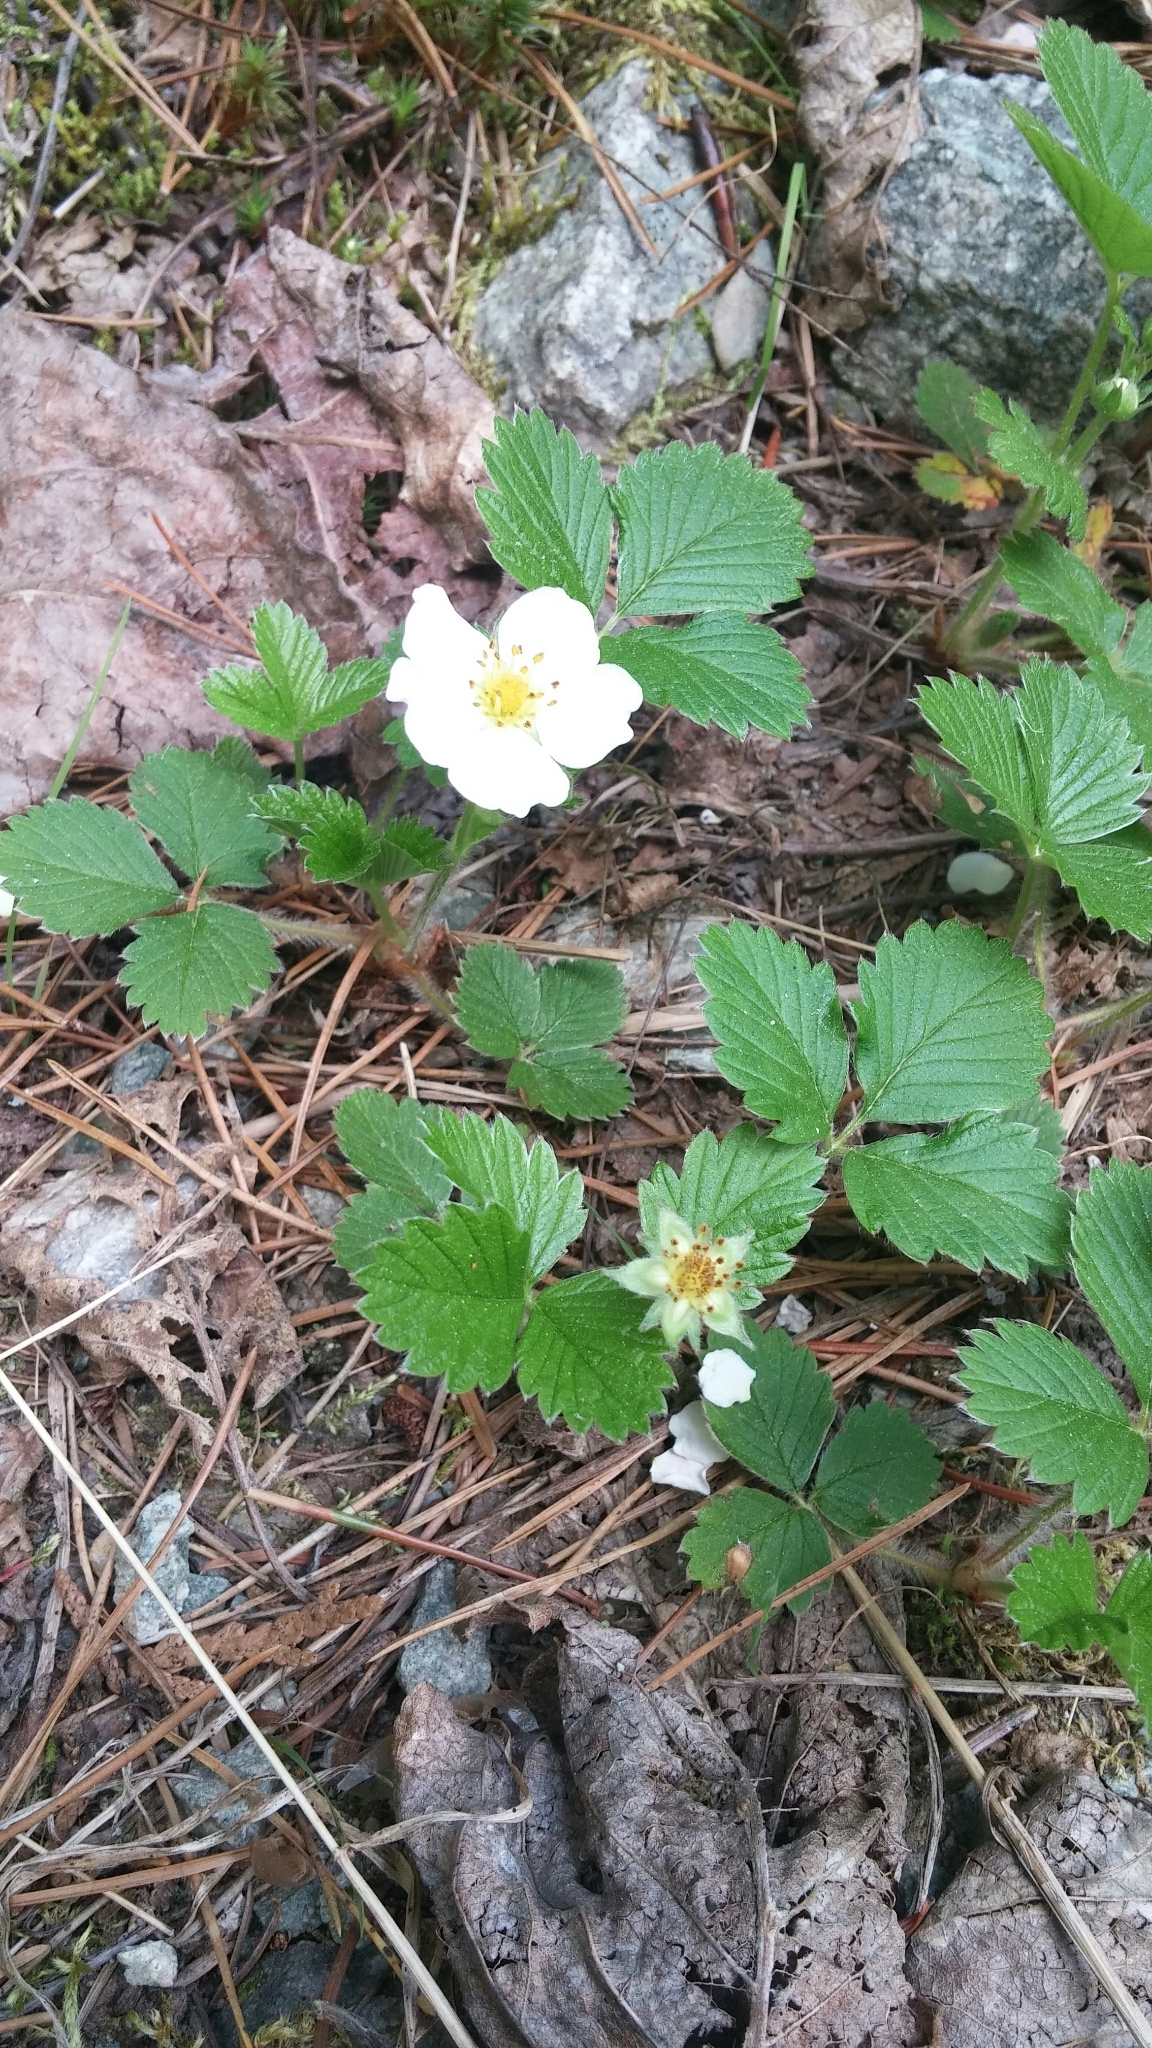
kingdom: Plantae
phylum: Tracheophyta
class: Magnoliopsida
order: Rosales
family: Rosaceae
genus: Fragaria
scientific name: Fragaria vesca
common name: Wild strawberry
